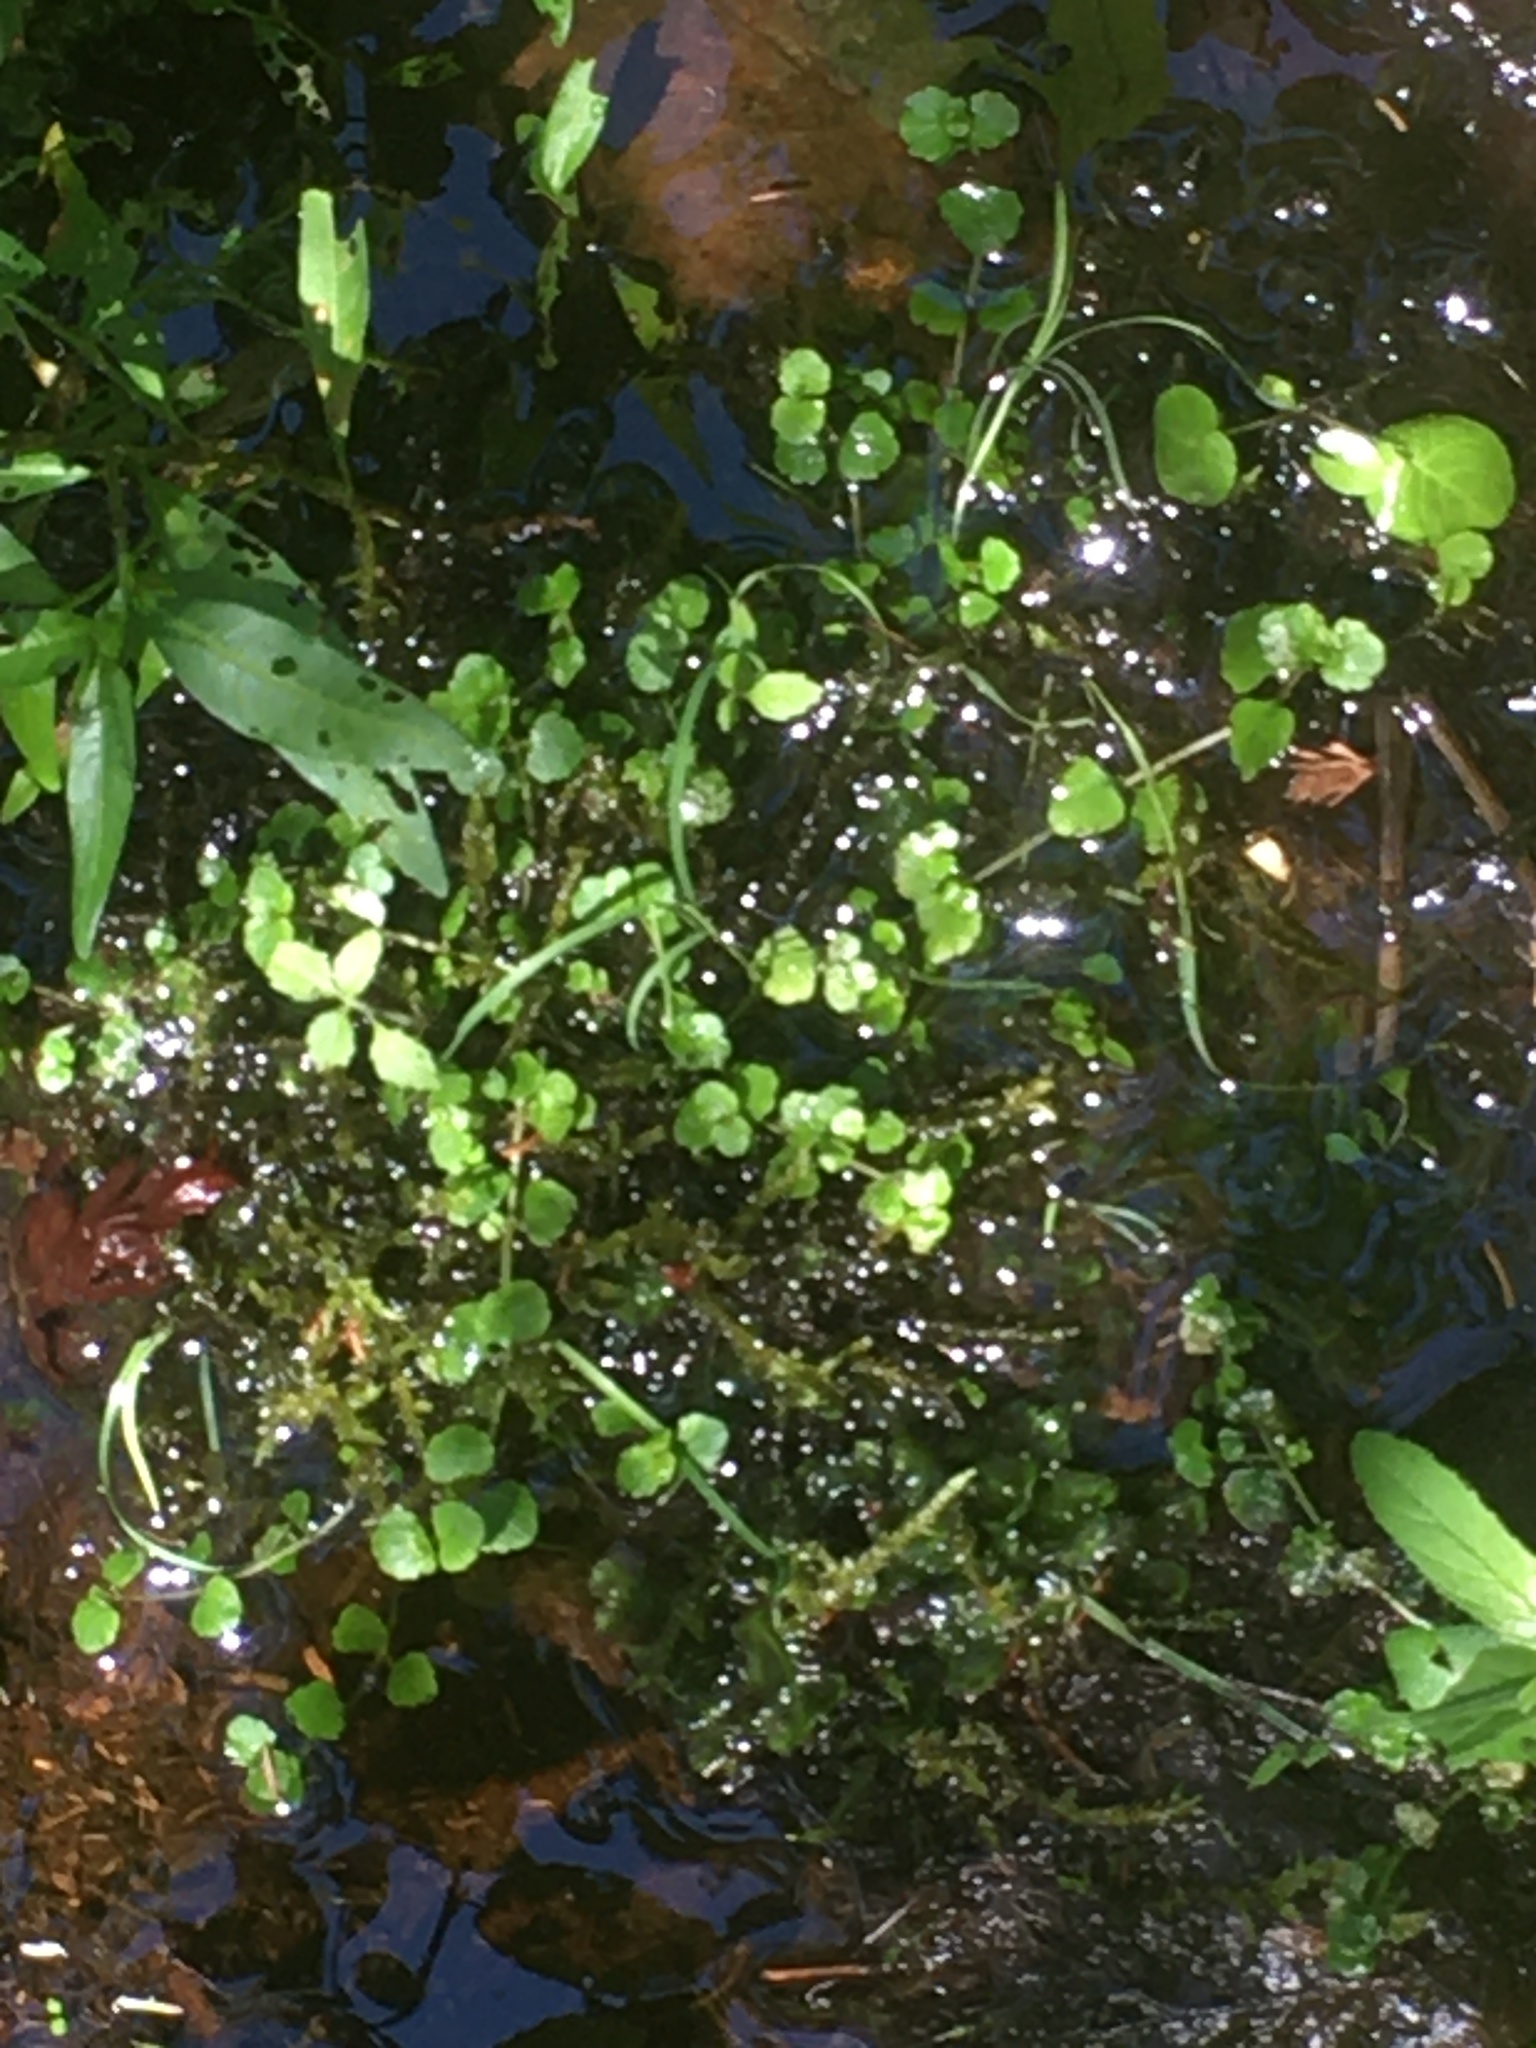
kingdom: Plantae
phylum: Tracheophyta
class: Magnoliopsida
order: Saxifragales
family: Saxifragaceae
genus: Chrysosplenium
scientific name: Chrysosplenium americanum
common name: American golden-saxifrage
